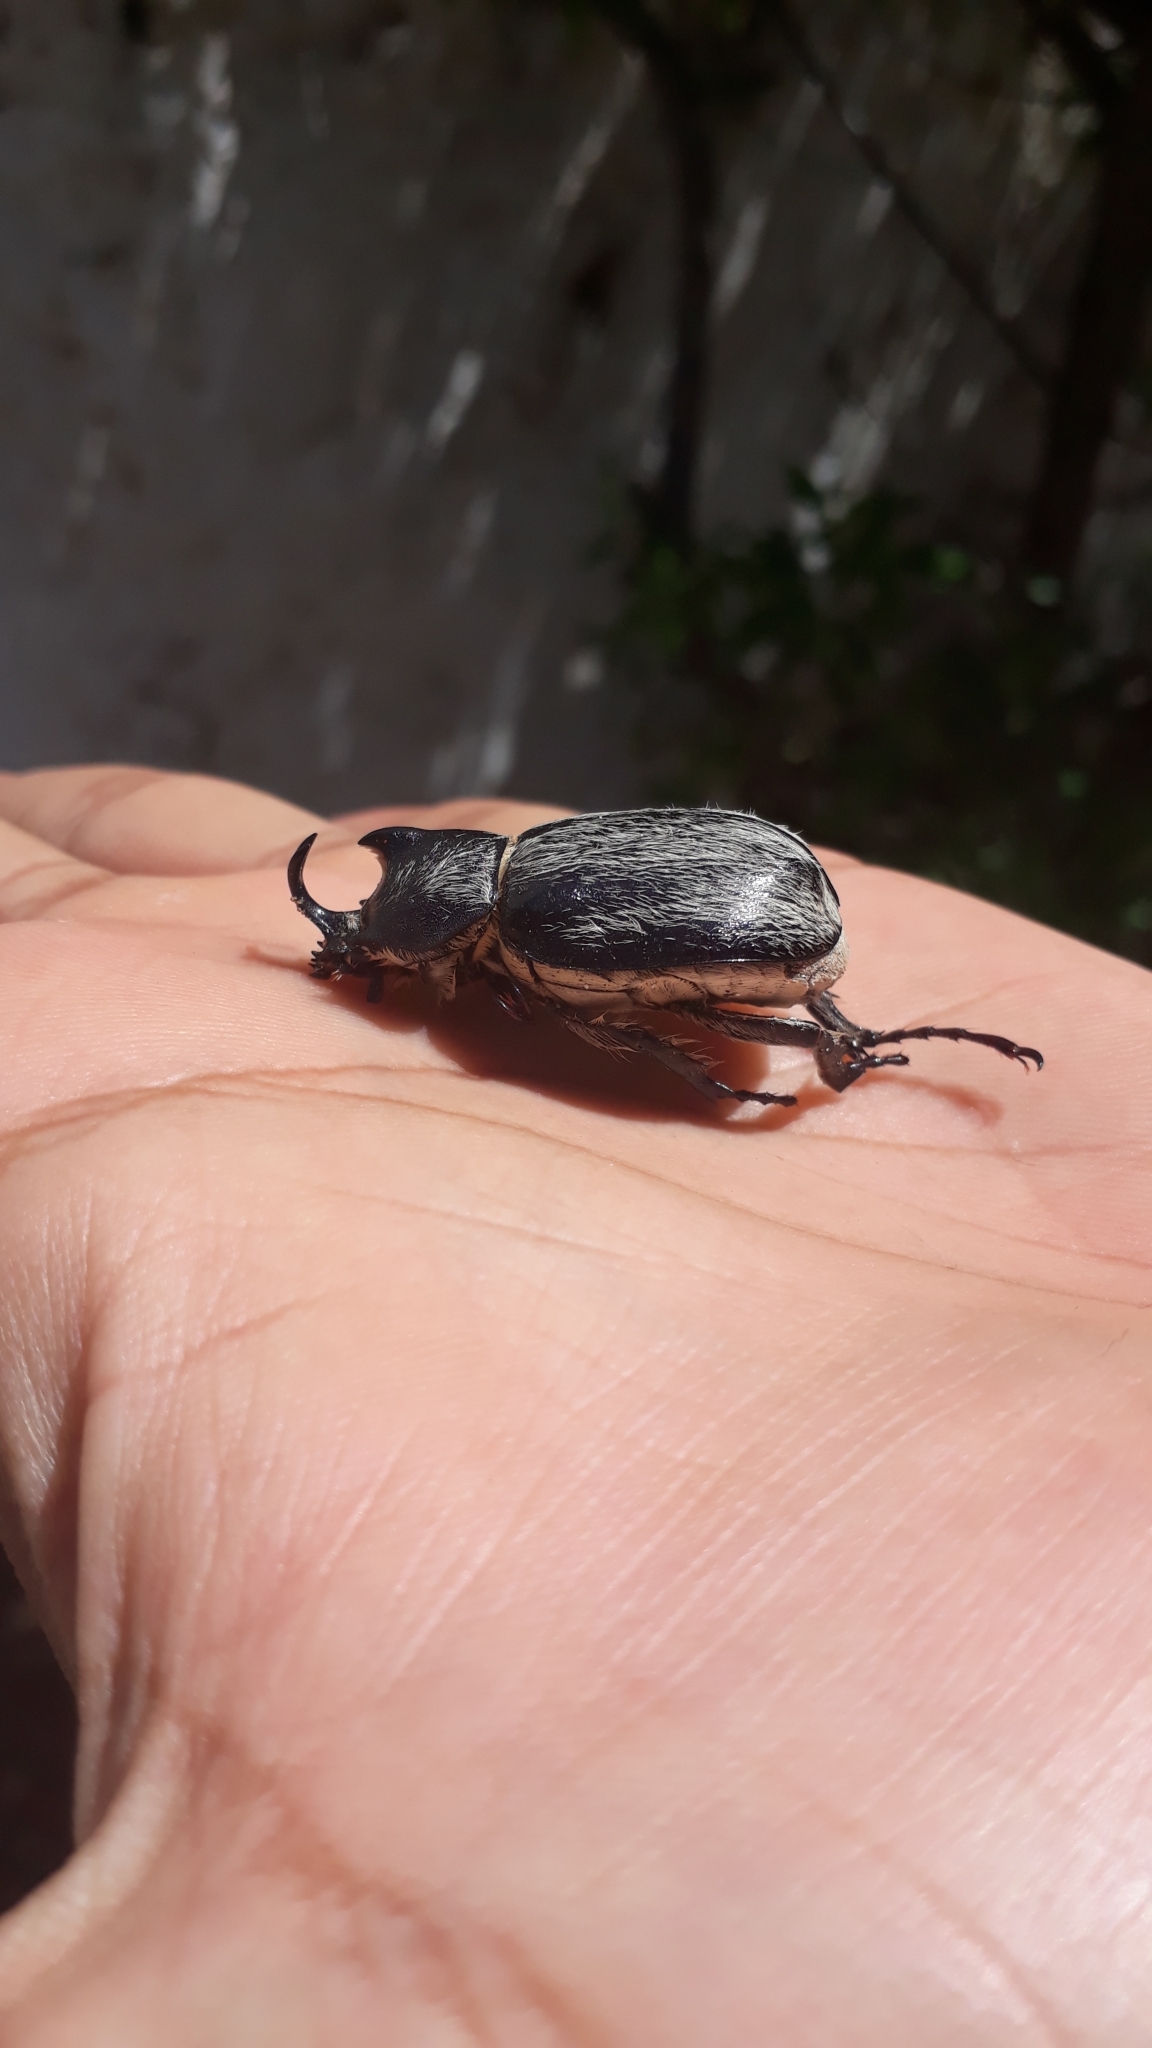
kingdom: Animalia
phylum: Arthropoda
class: Insecta
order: Coleoptera
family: Scarabaeidae
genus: Megasoma
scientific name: Megasoma thersites
